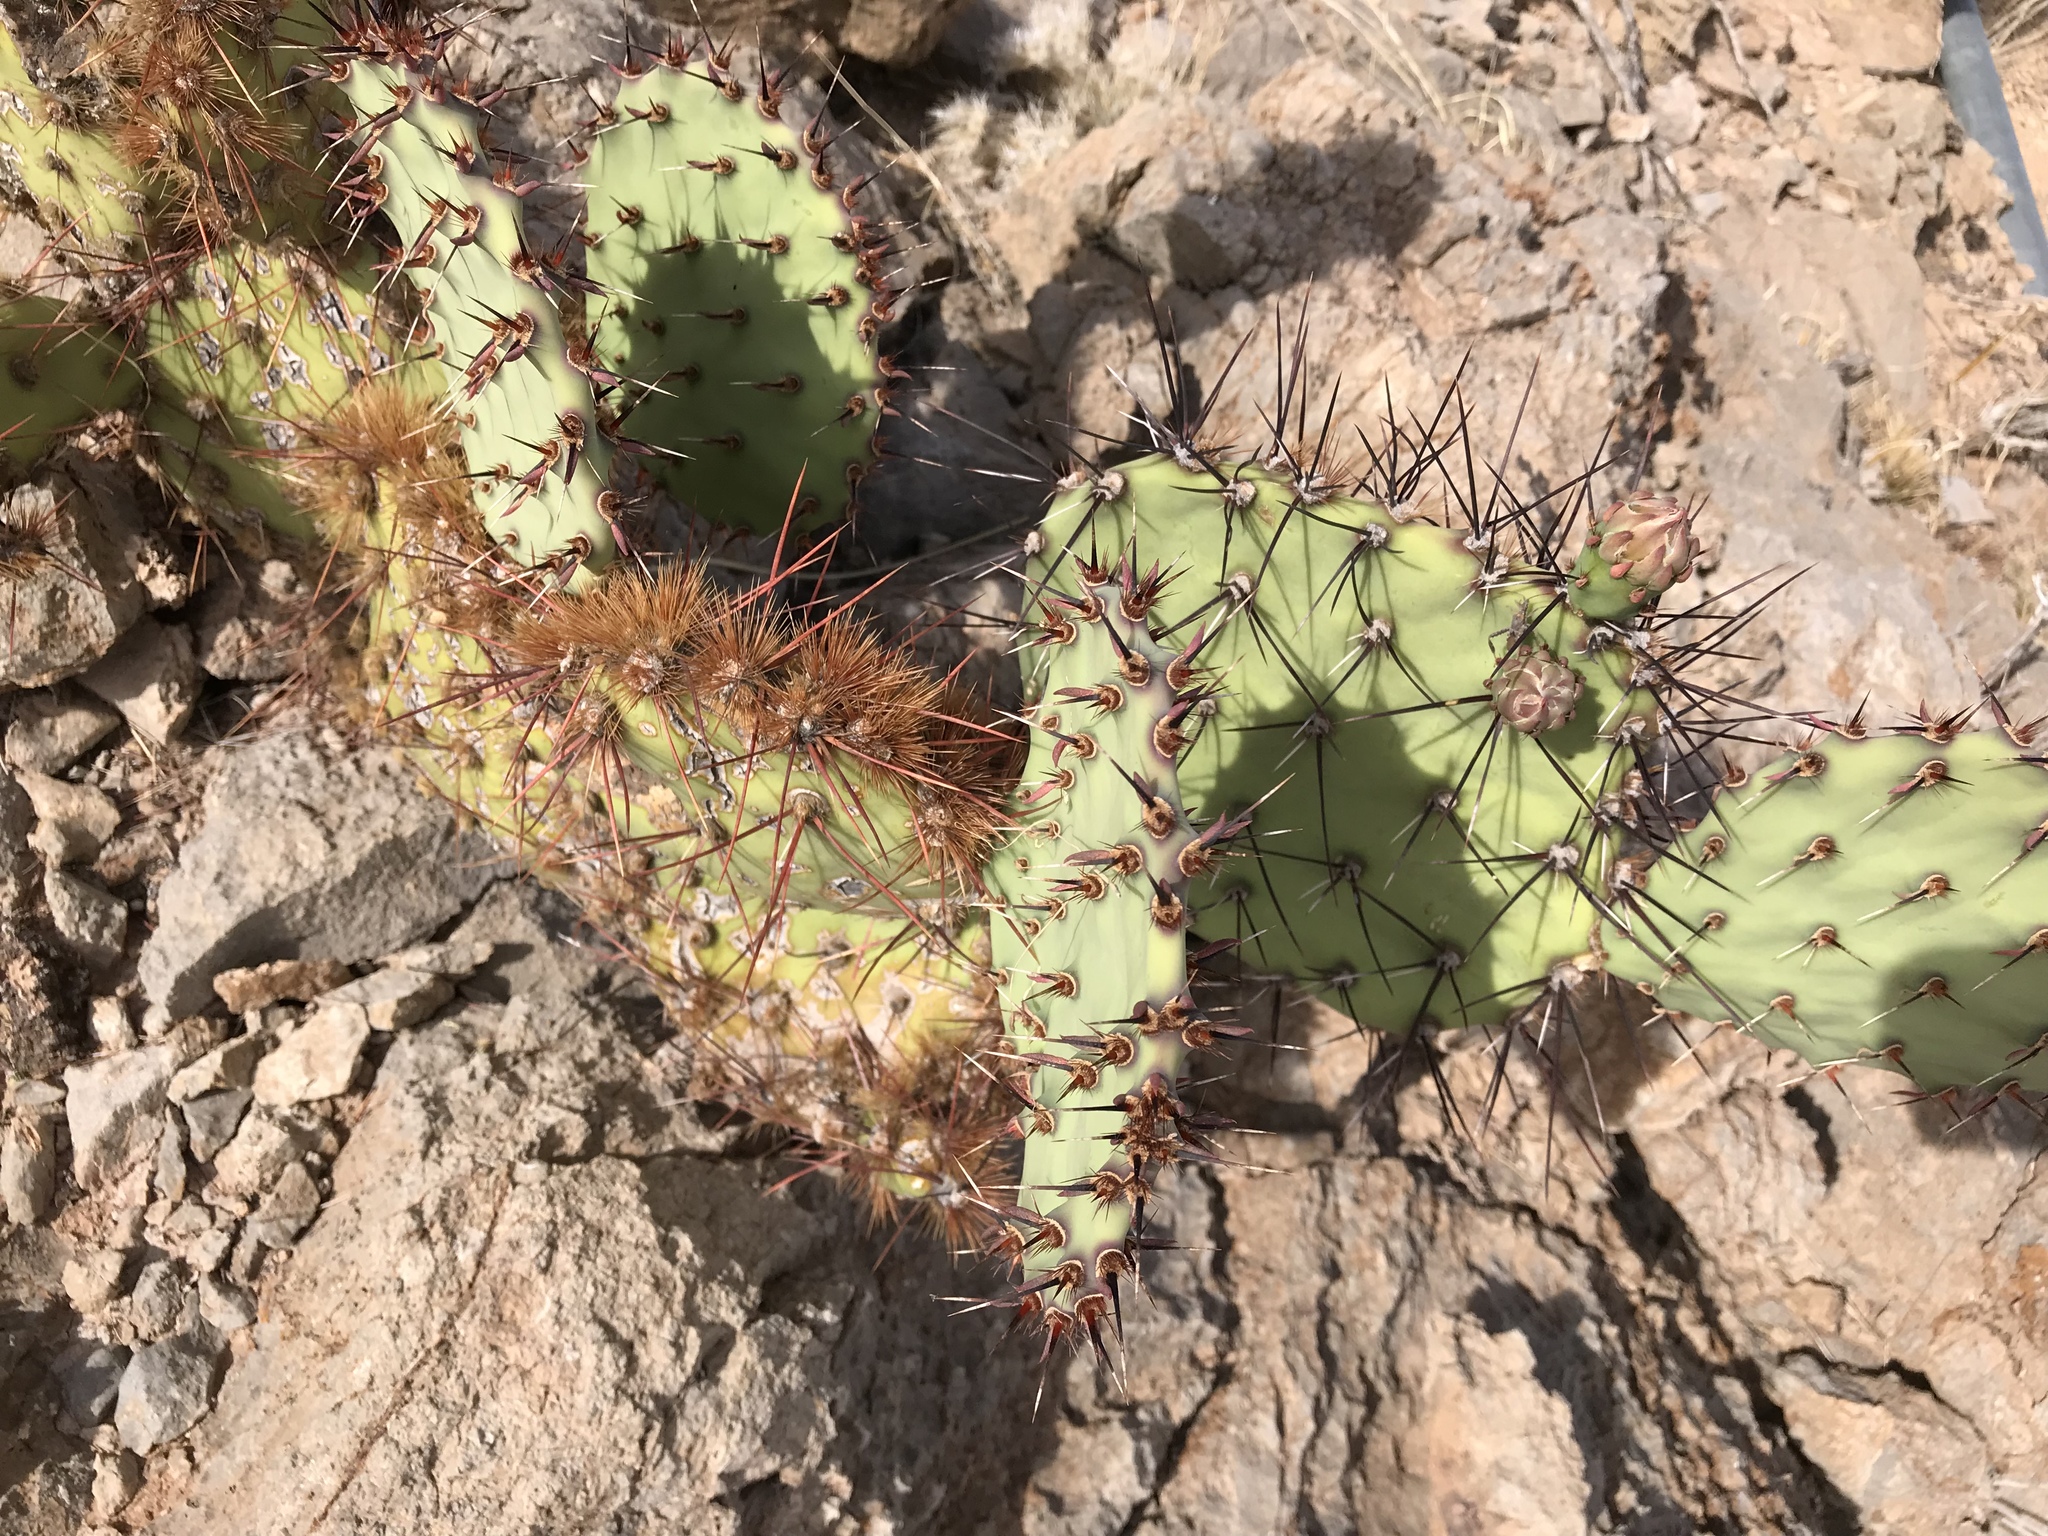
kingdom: Plantae
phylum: Tracheophyta
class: Magnoliopsida
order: Caryophyllales
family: Cactaceae
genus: Opuntia
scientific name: Opuntia phaeacantha
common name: New mexico prickly-pear
